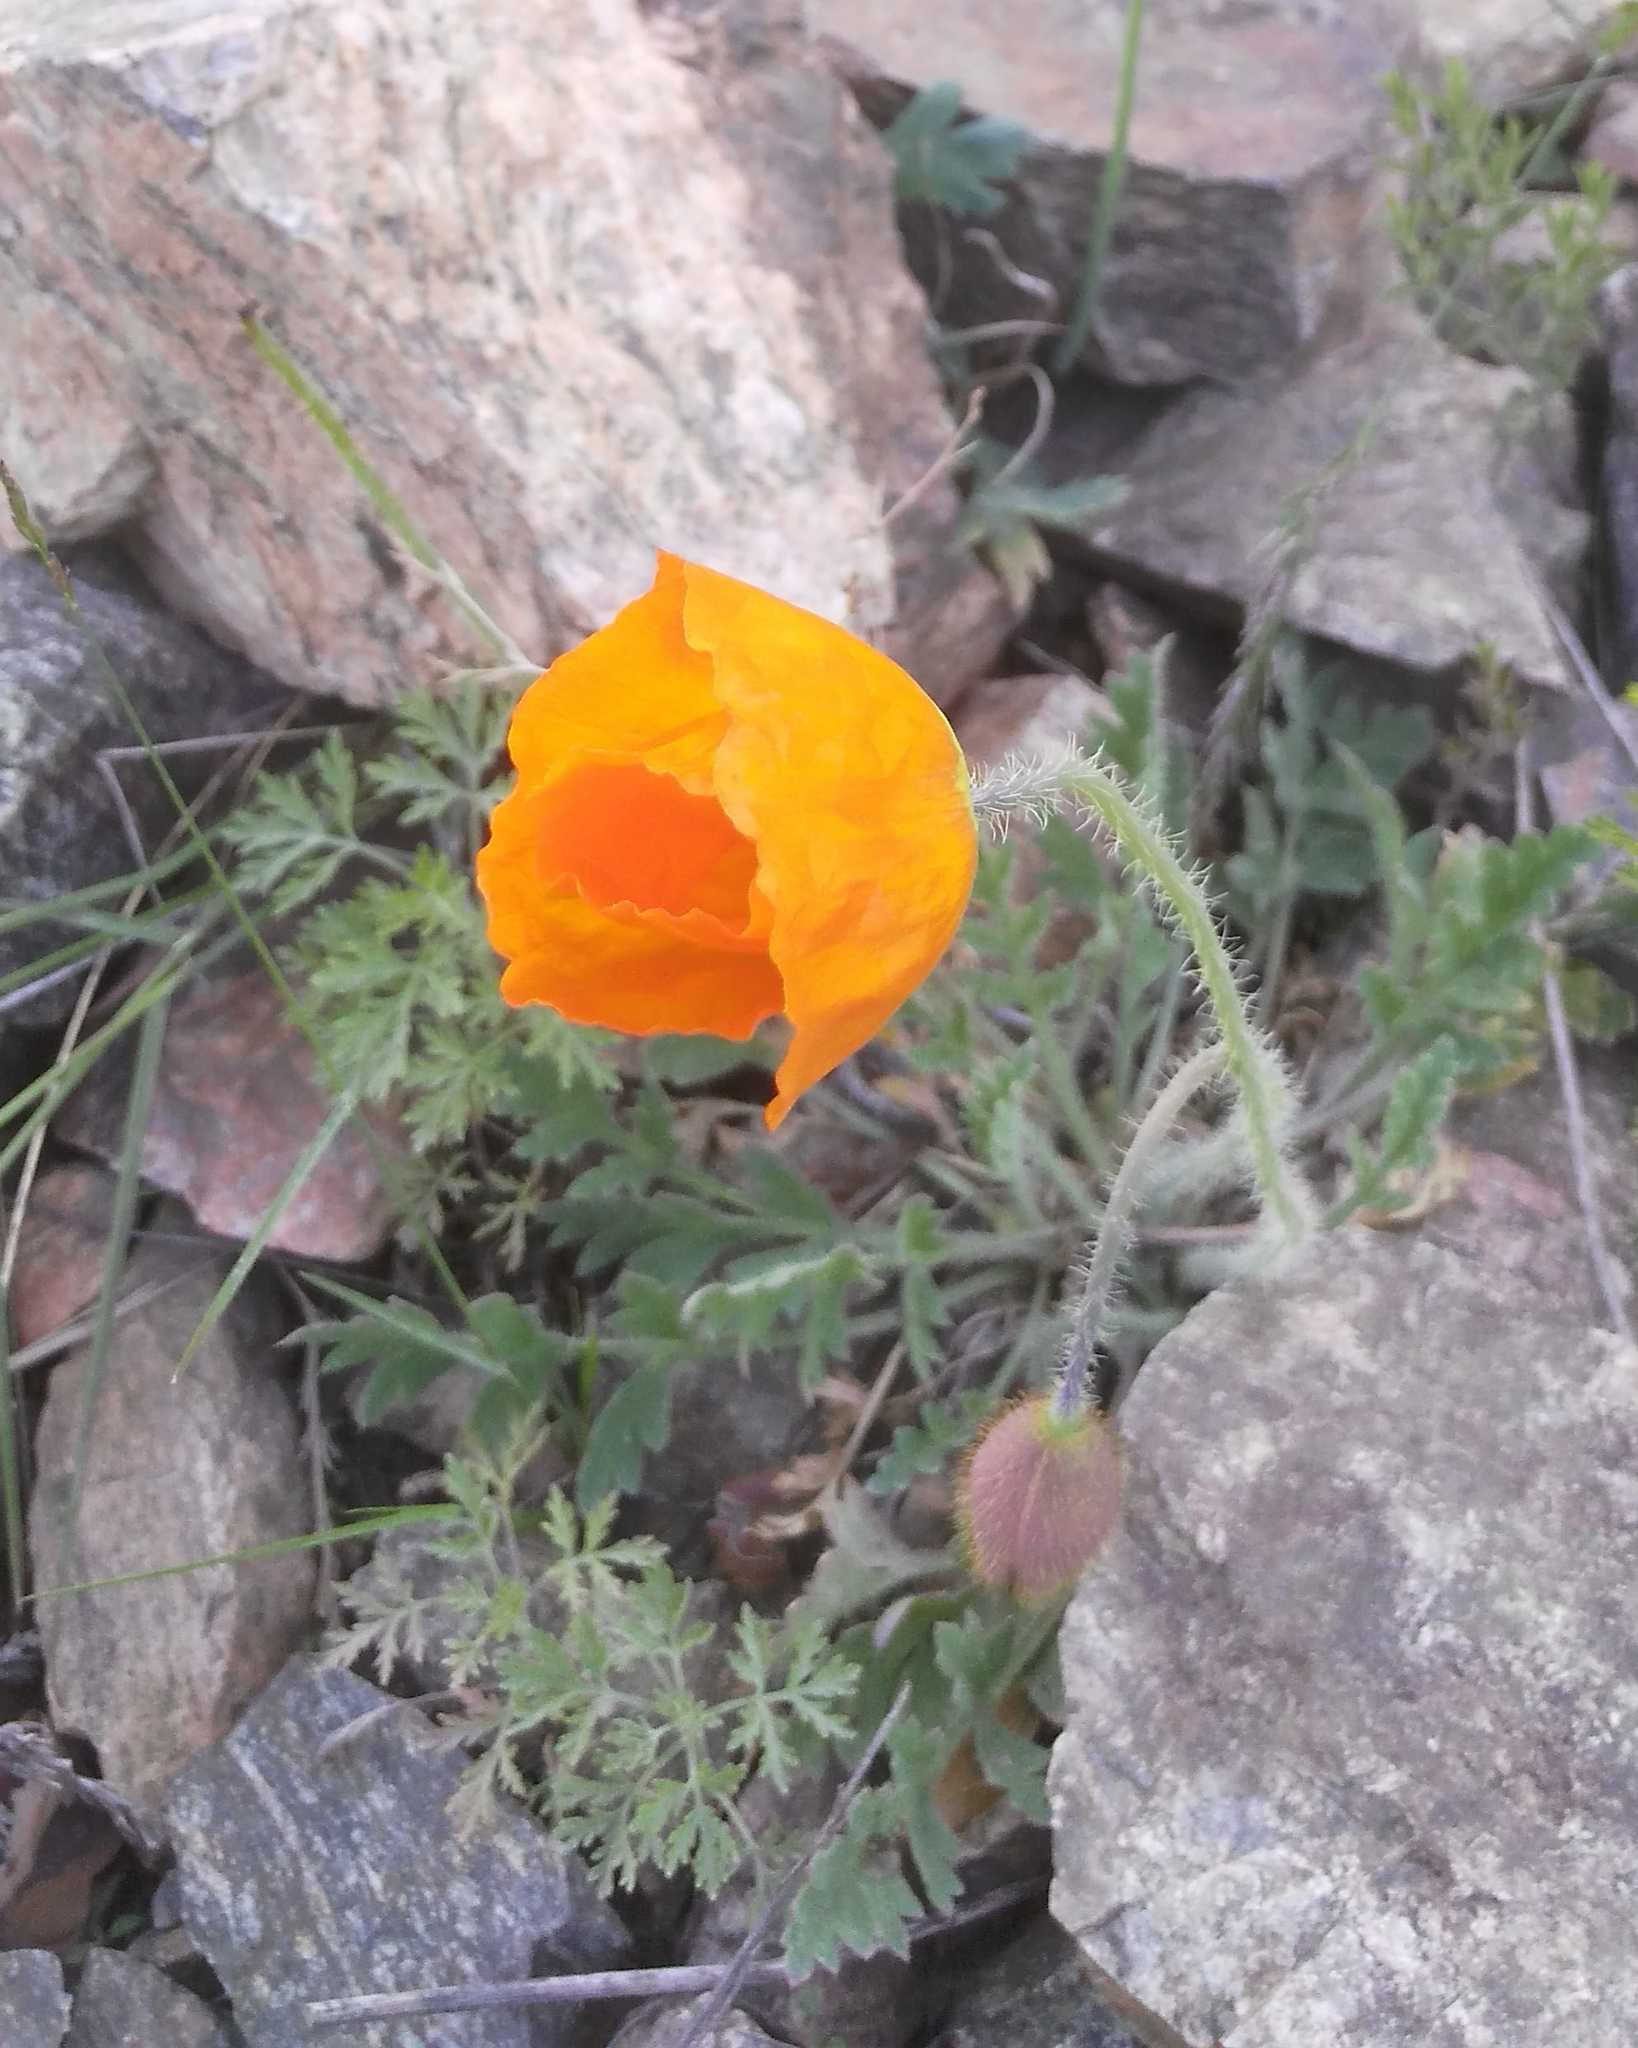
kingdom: Plantae
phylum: Tracheophyta
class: Magnoliopsida
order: Ranunculales
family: Papaveraceae
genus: Papaver
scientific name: Papaver nudicaule
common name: Arctic poppy
